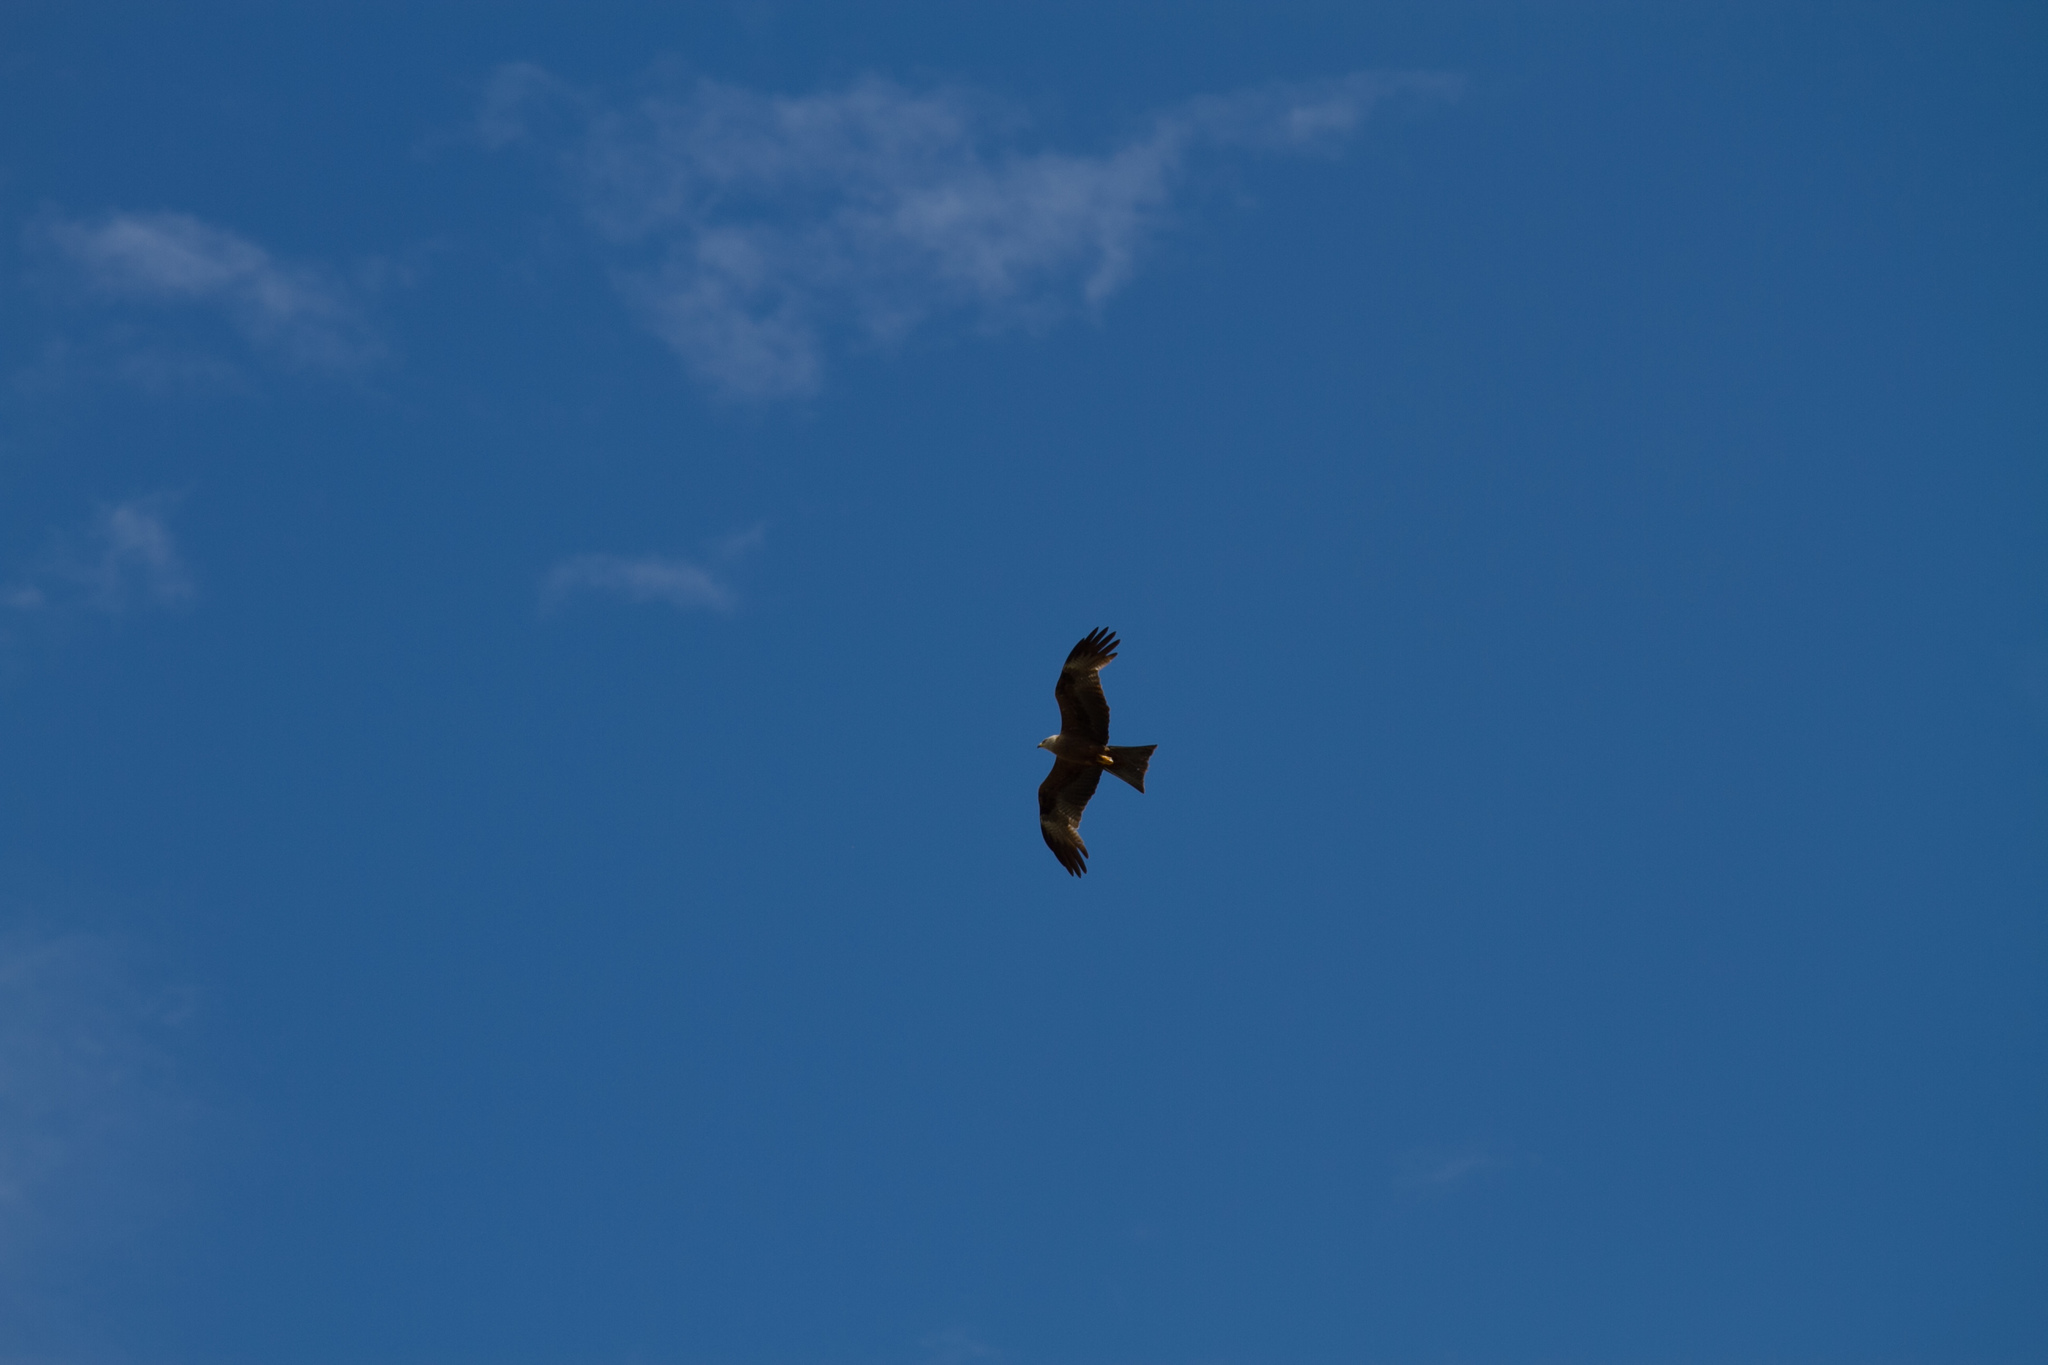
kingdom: Animalia
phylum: Chordata
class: Aves
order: Accipitriformes
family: Accipitridae
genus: Milvus
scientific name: Milvus migrans
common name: Black kite
